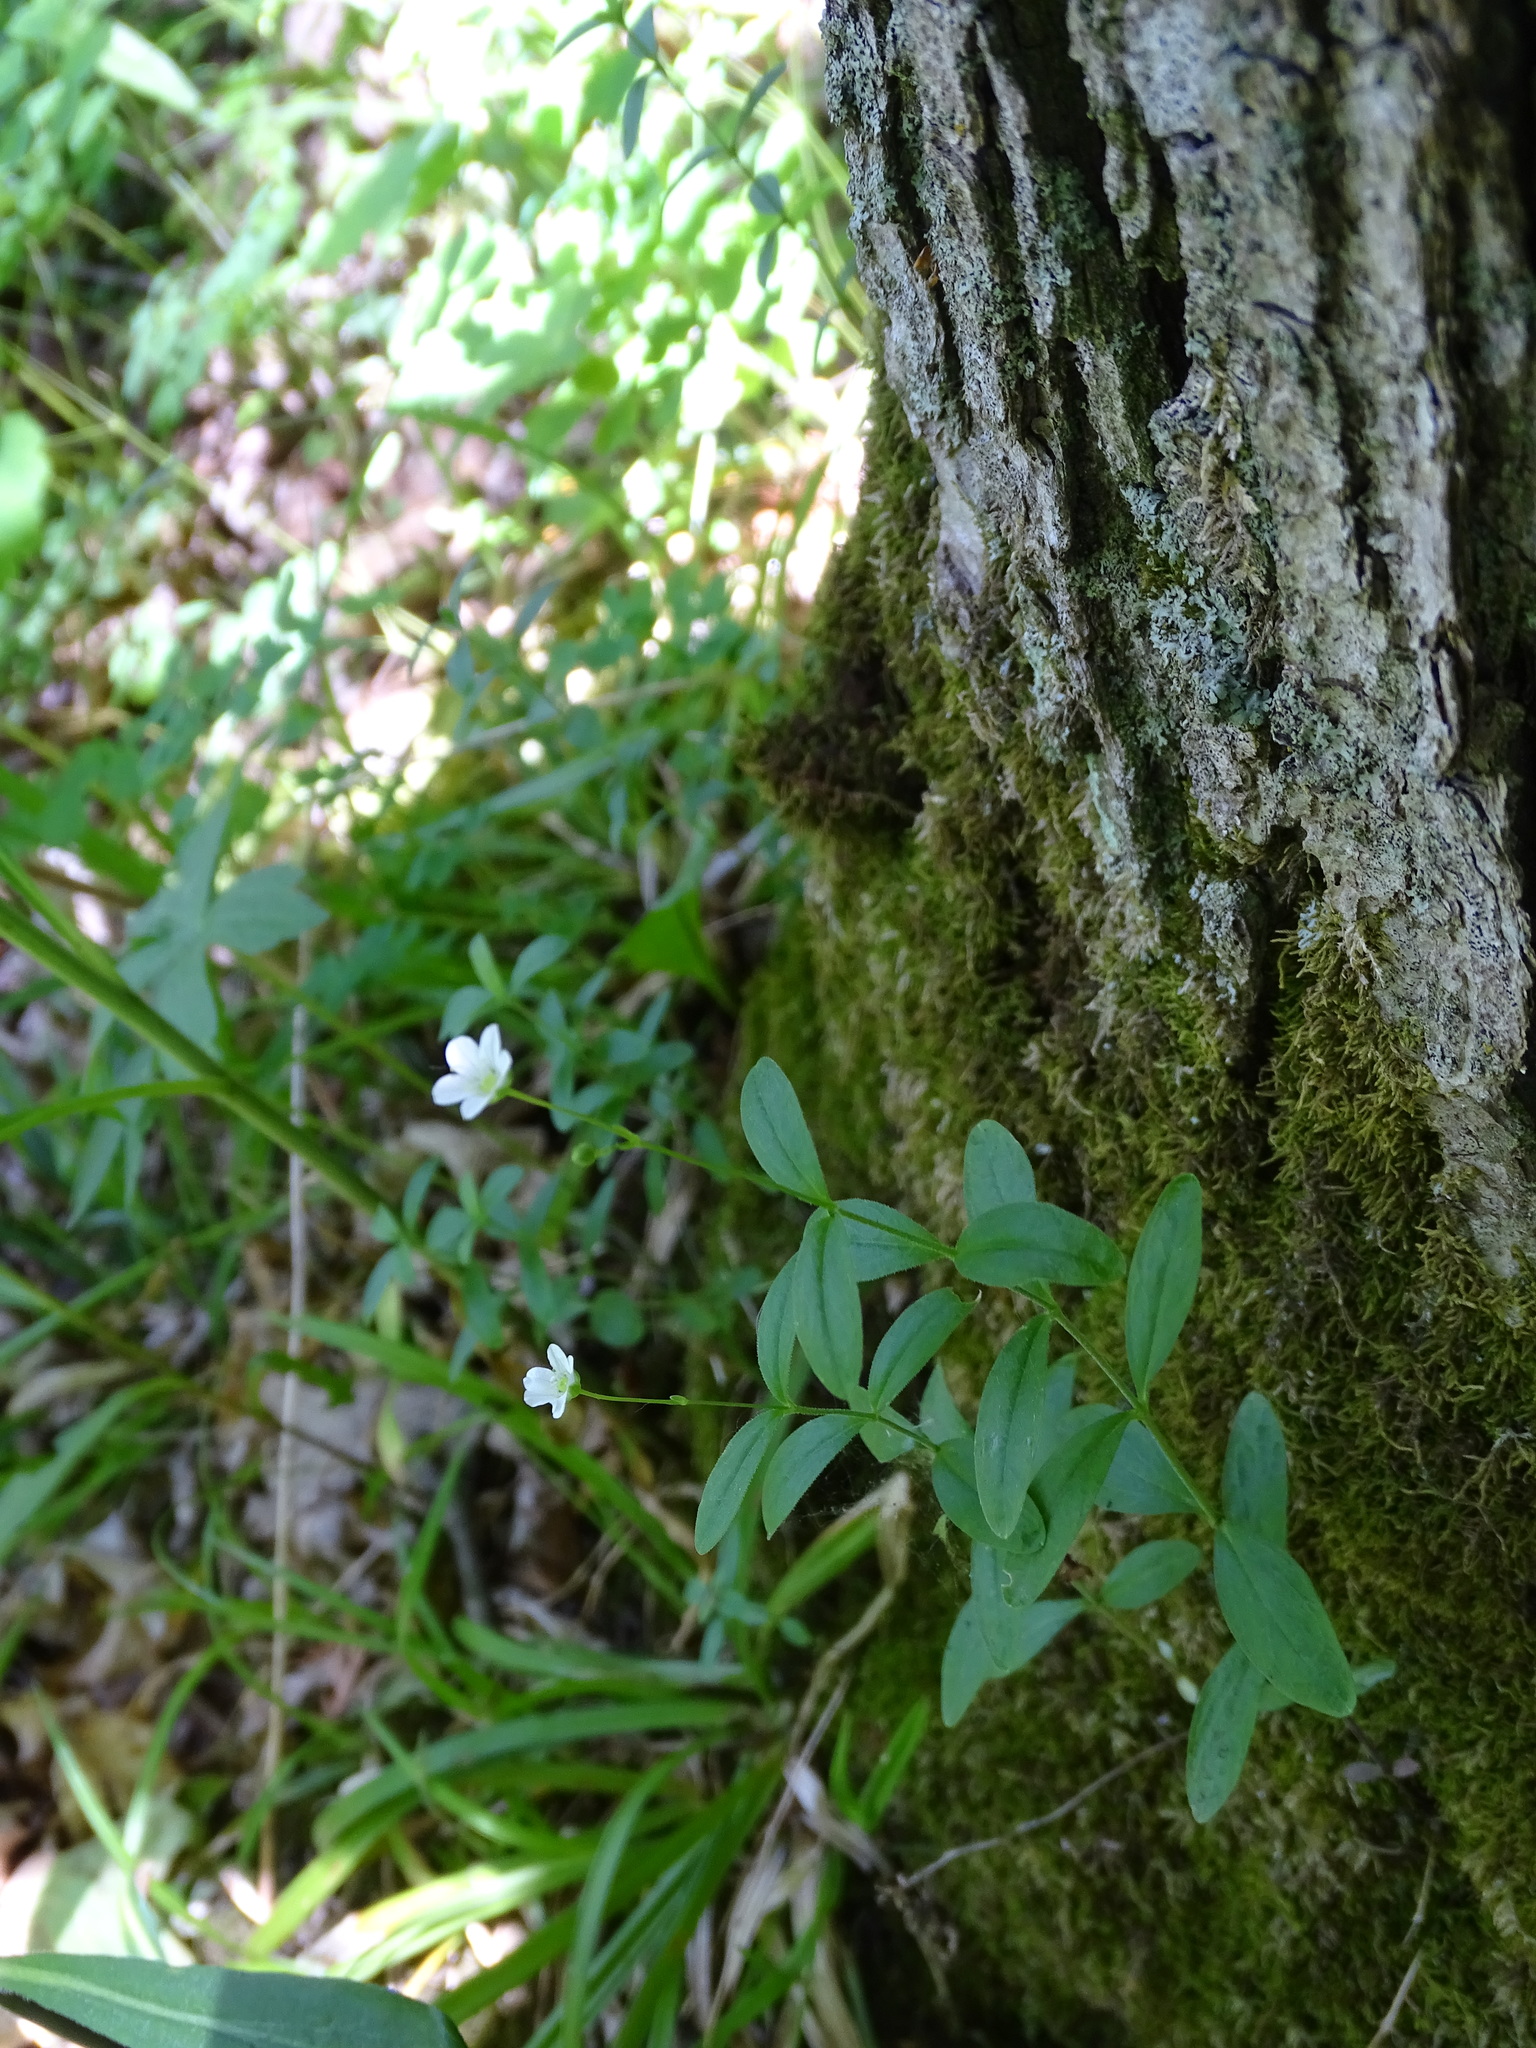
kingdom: Plantae
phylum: Tracheophyta
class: Magnoliopsida
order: Caryophyllales
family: Caryophyllaceae
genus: Moehringia
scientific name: Moehringia lateriflora
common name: Blunt-leaved sandwort
